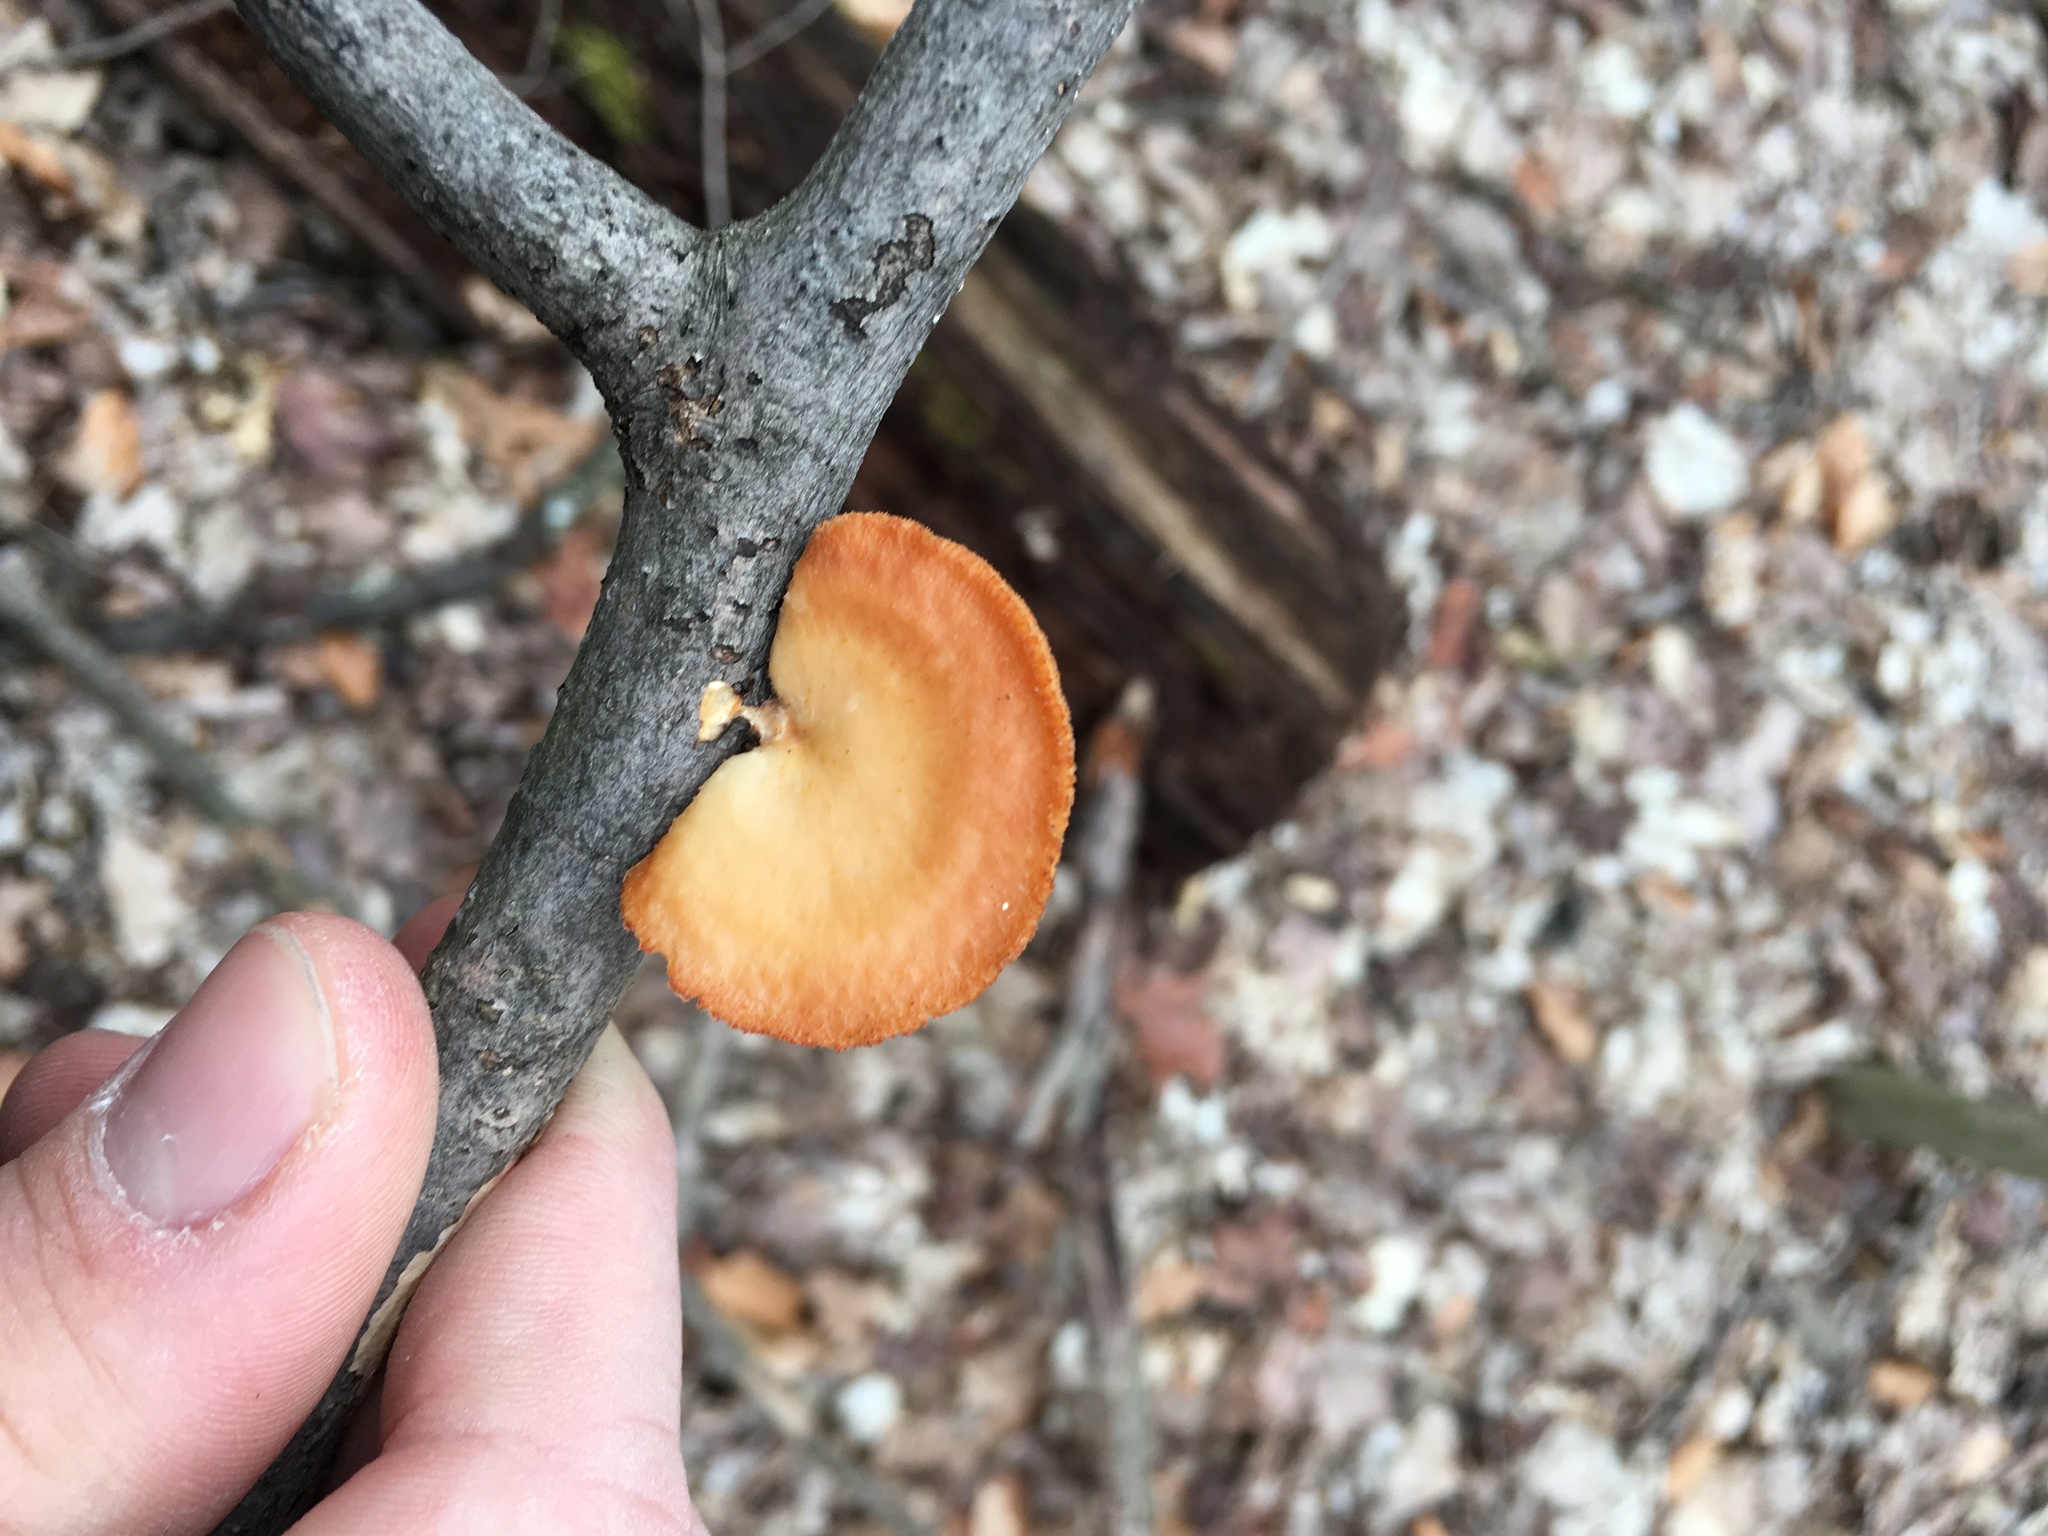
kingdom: Fungi
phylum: Basidiomycota
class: Agaricomycetes
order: Polyporales
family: Polyporaceae
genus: Neofavolus
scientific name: Neofavolus alveolaris
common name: Hexagonal-pored polypore
